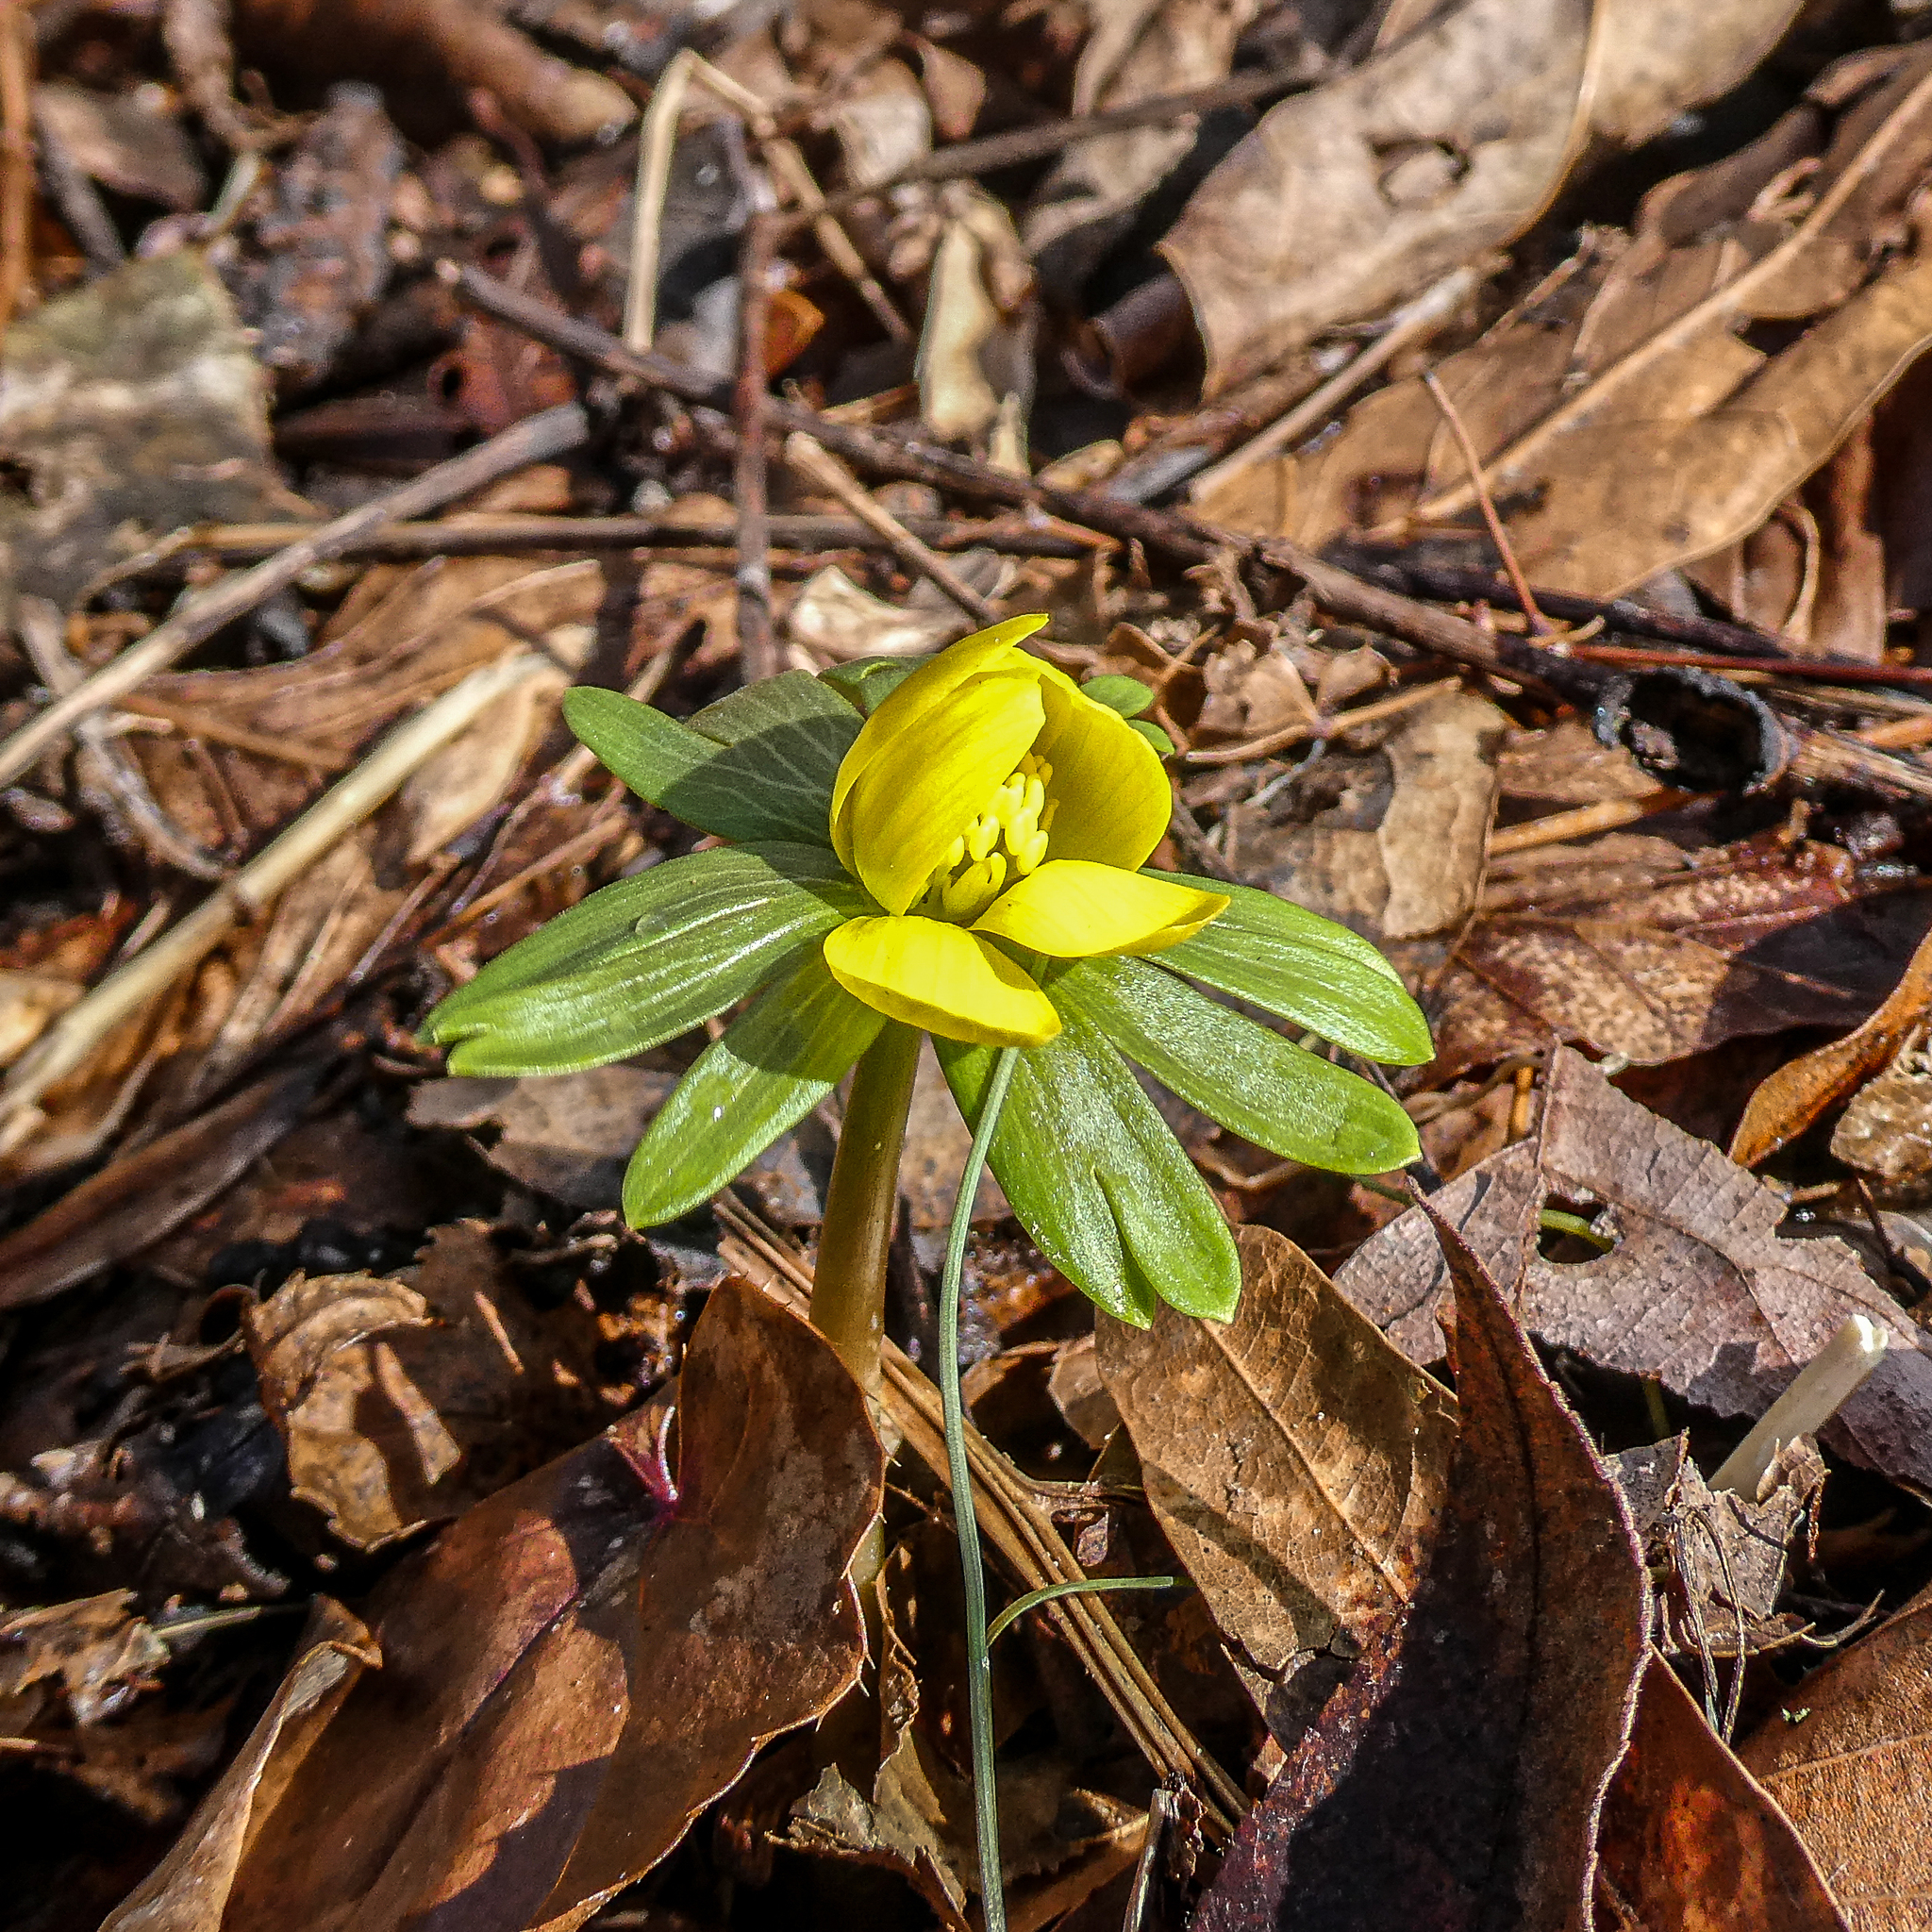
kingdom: Plantae
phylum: Tracheophyta
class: Magnoliopsida
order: Ranunculales
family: Ranunculaceae
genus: Eranthis
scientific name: Eranthis hyemalis
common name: Winter aconite
